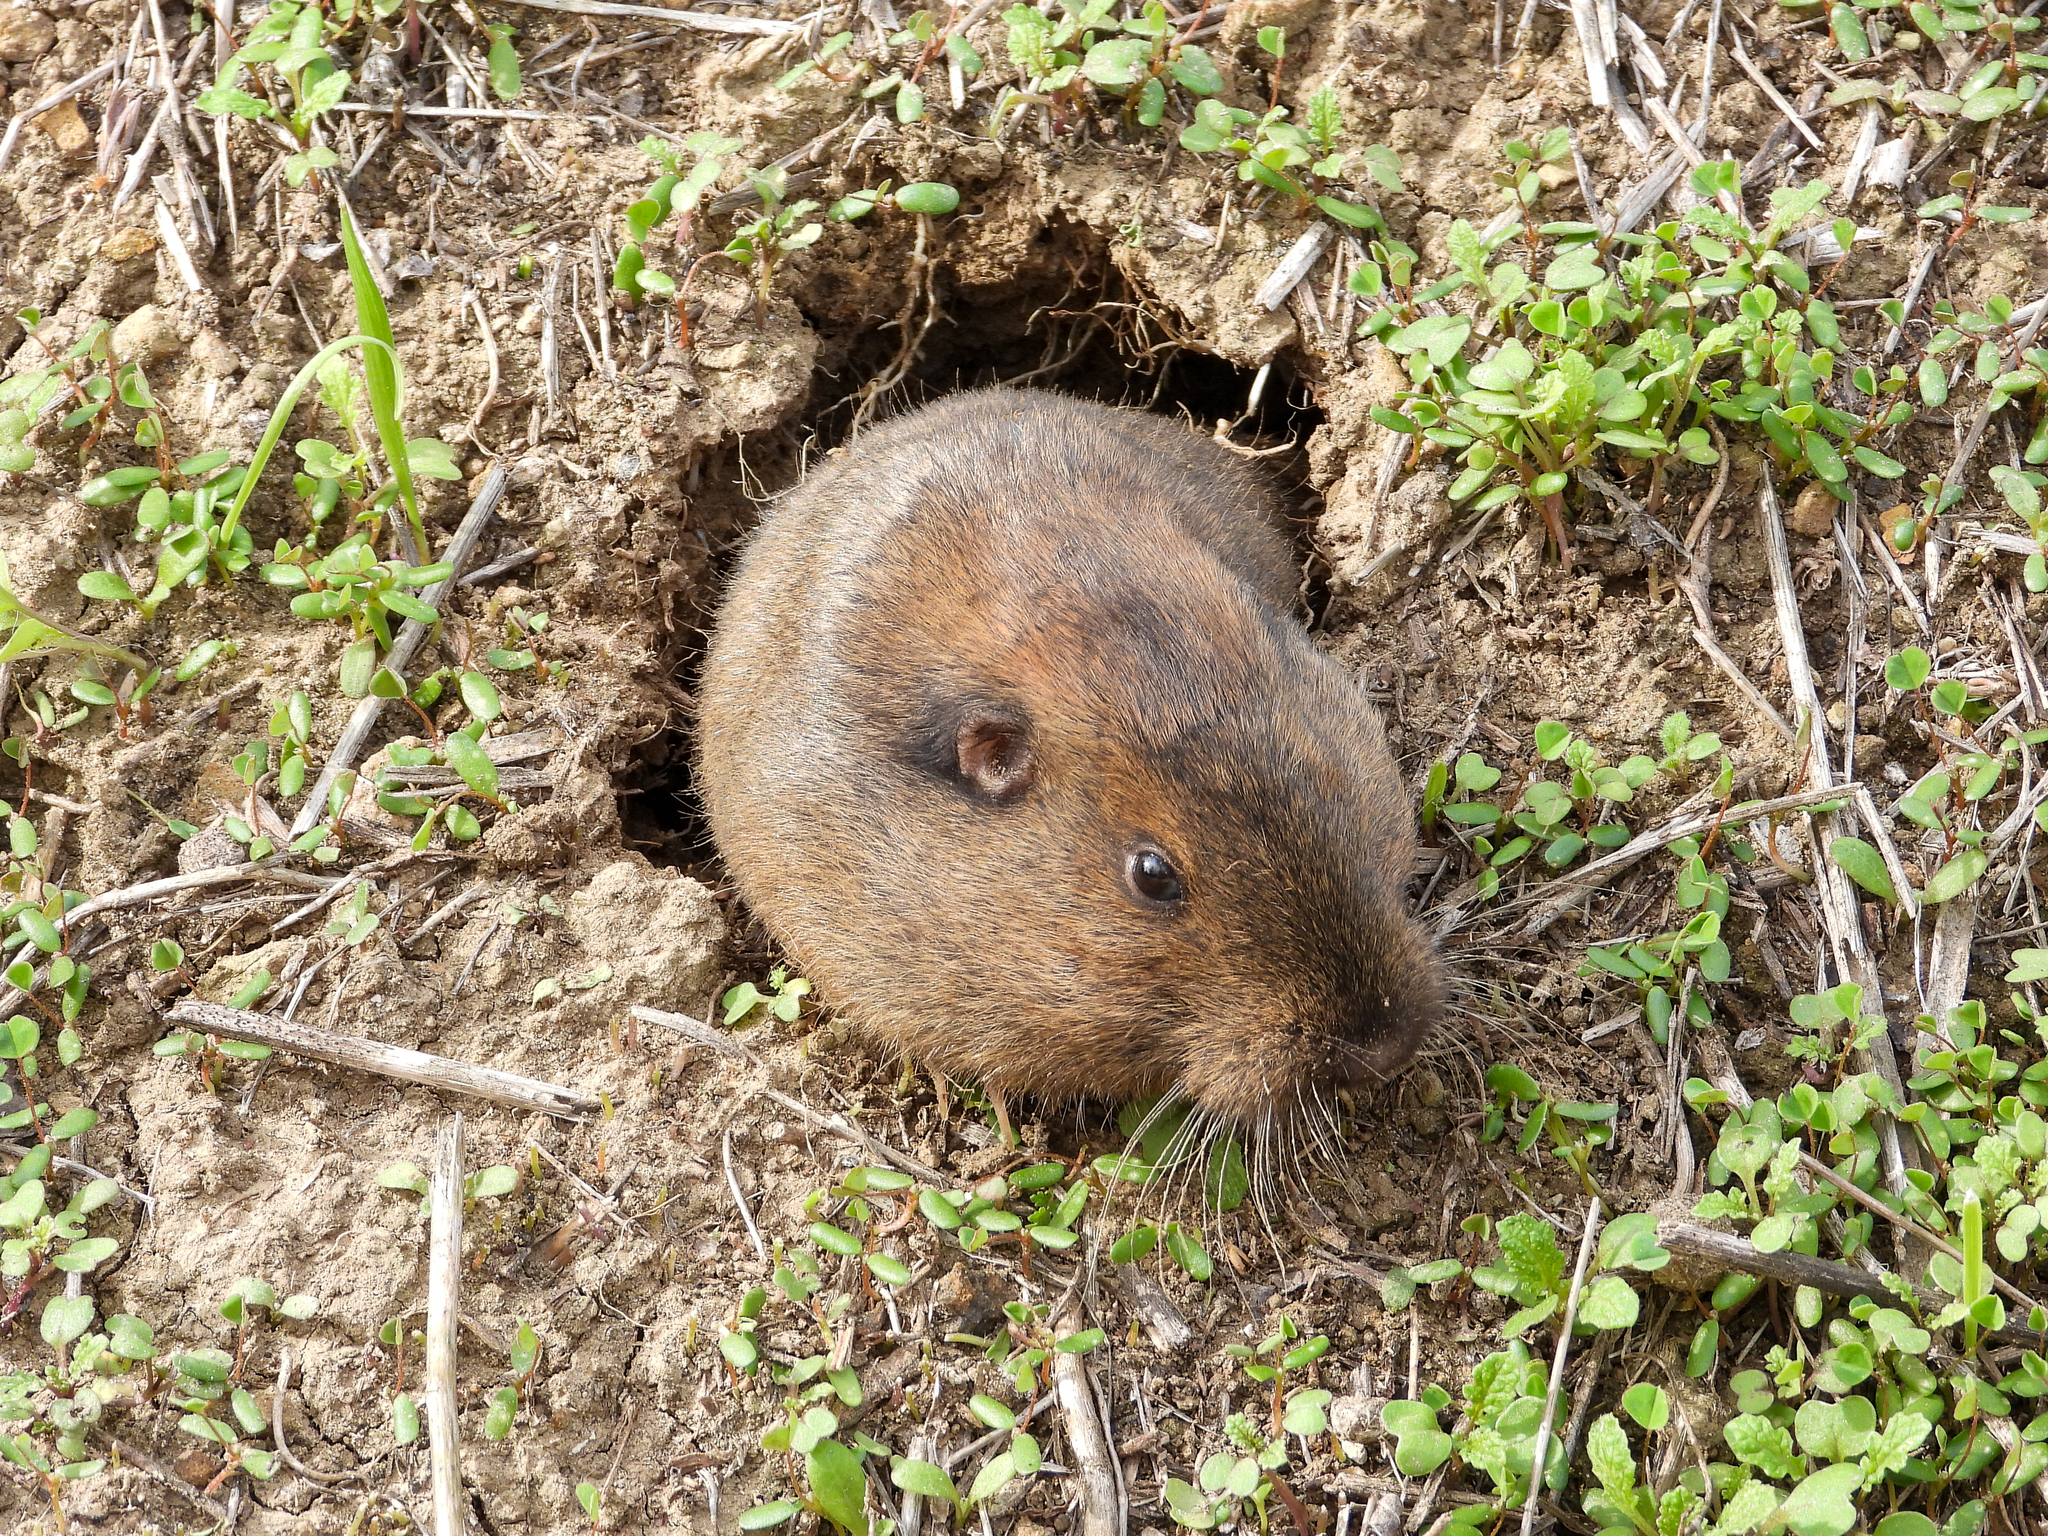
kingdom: Animalia
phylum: Chordata
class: Mammalia
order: Rodentia
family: Geomyidae
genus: Thomomys
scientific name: Thomomys bottae
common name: Botta's pocket gopher
